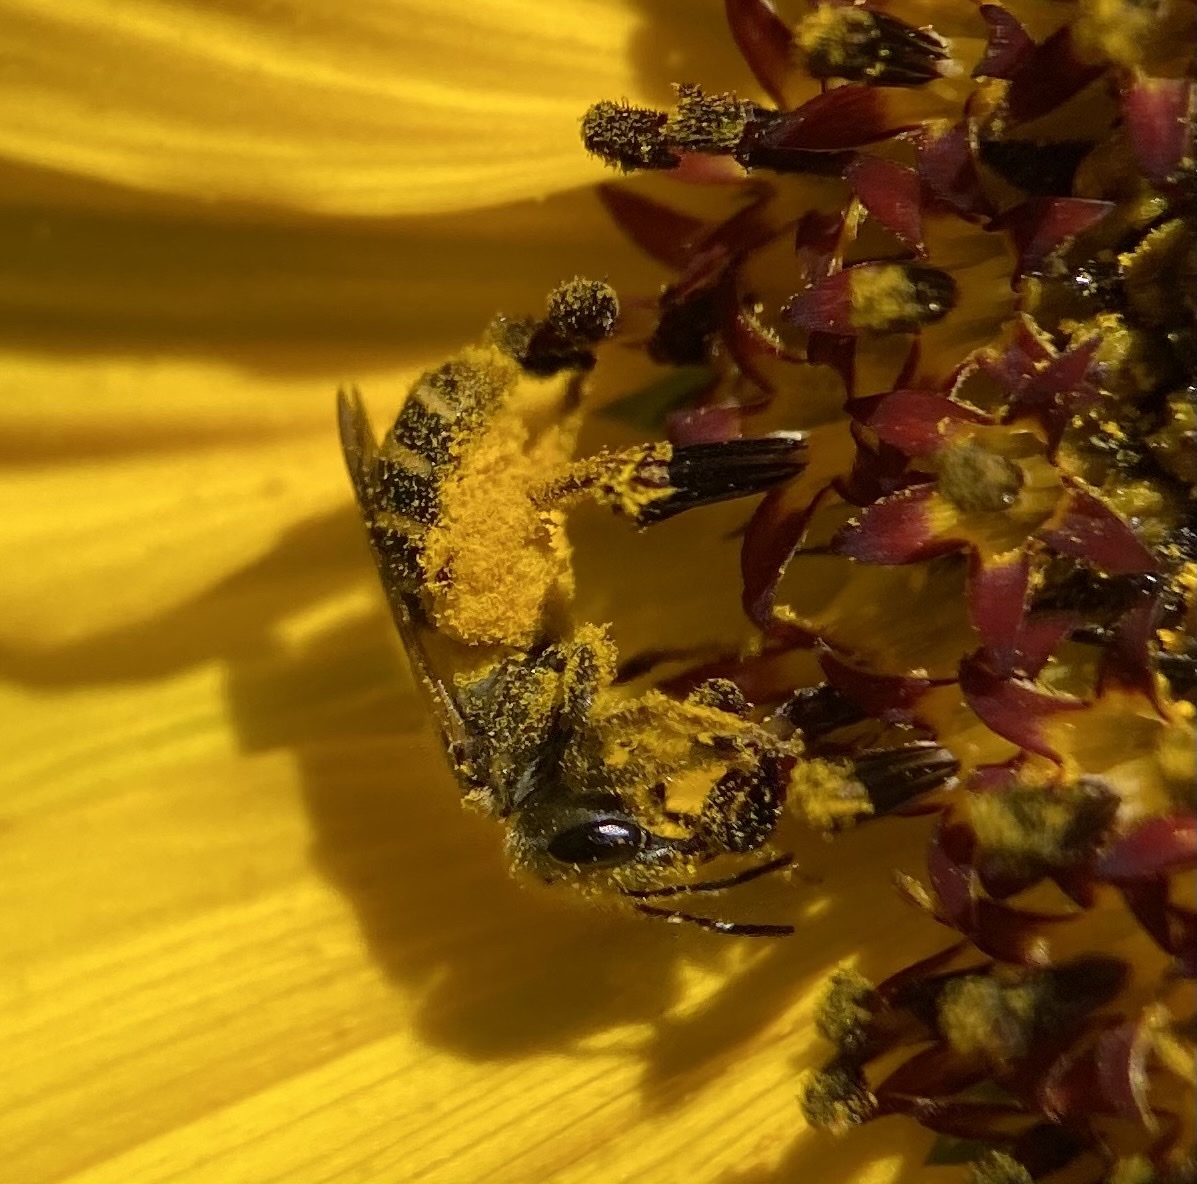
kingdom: Animalia
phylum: Arthropoda
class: Insecta
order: Hymenoptera
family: Halictidae
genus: Halictus
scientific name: Halictus ligatus
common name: Ligated furrow bee
